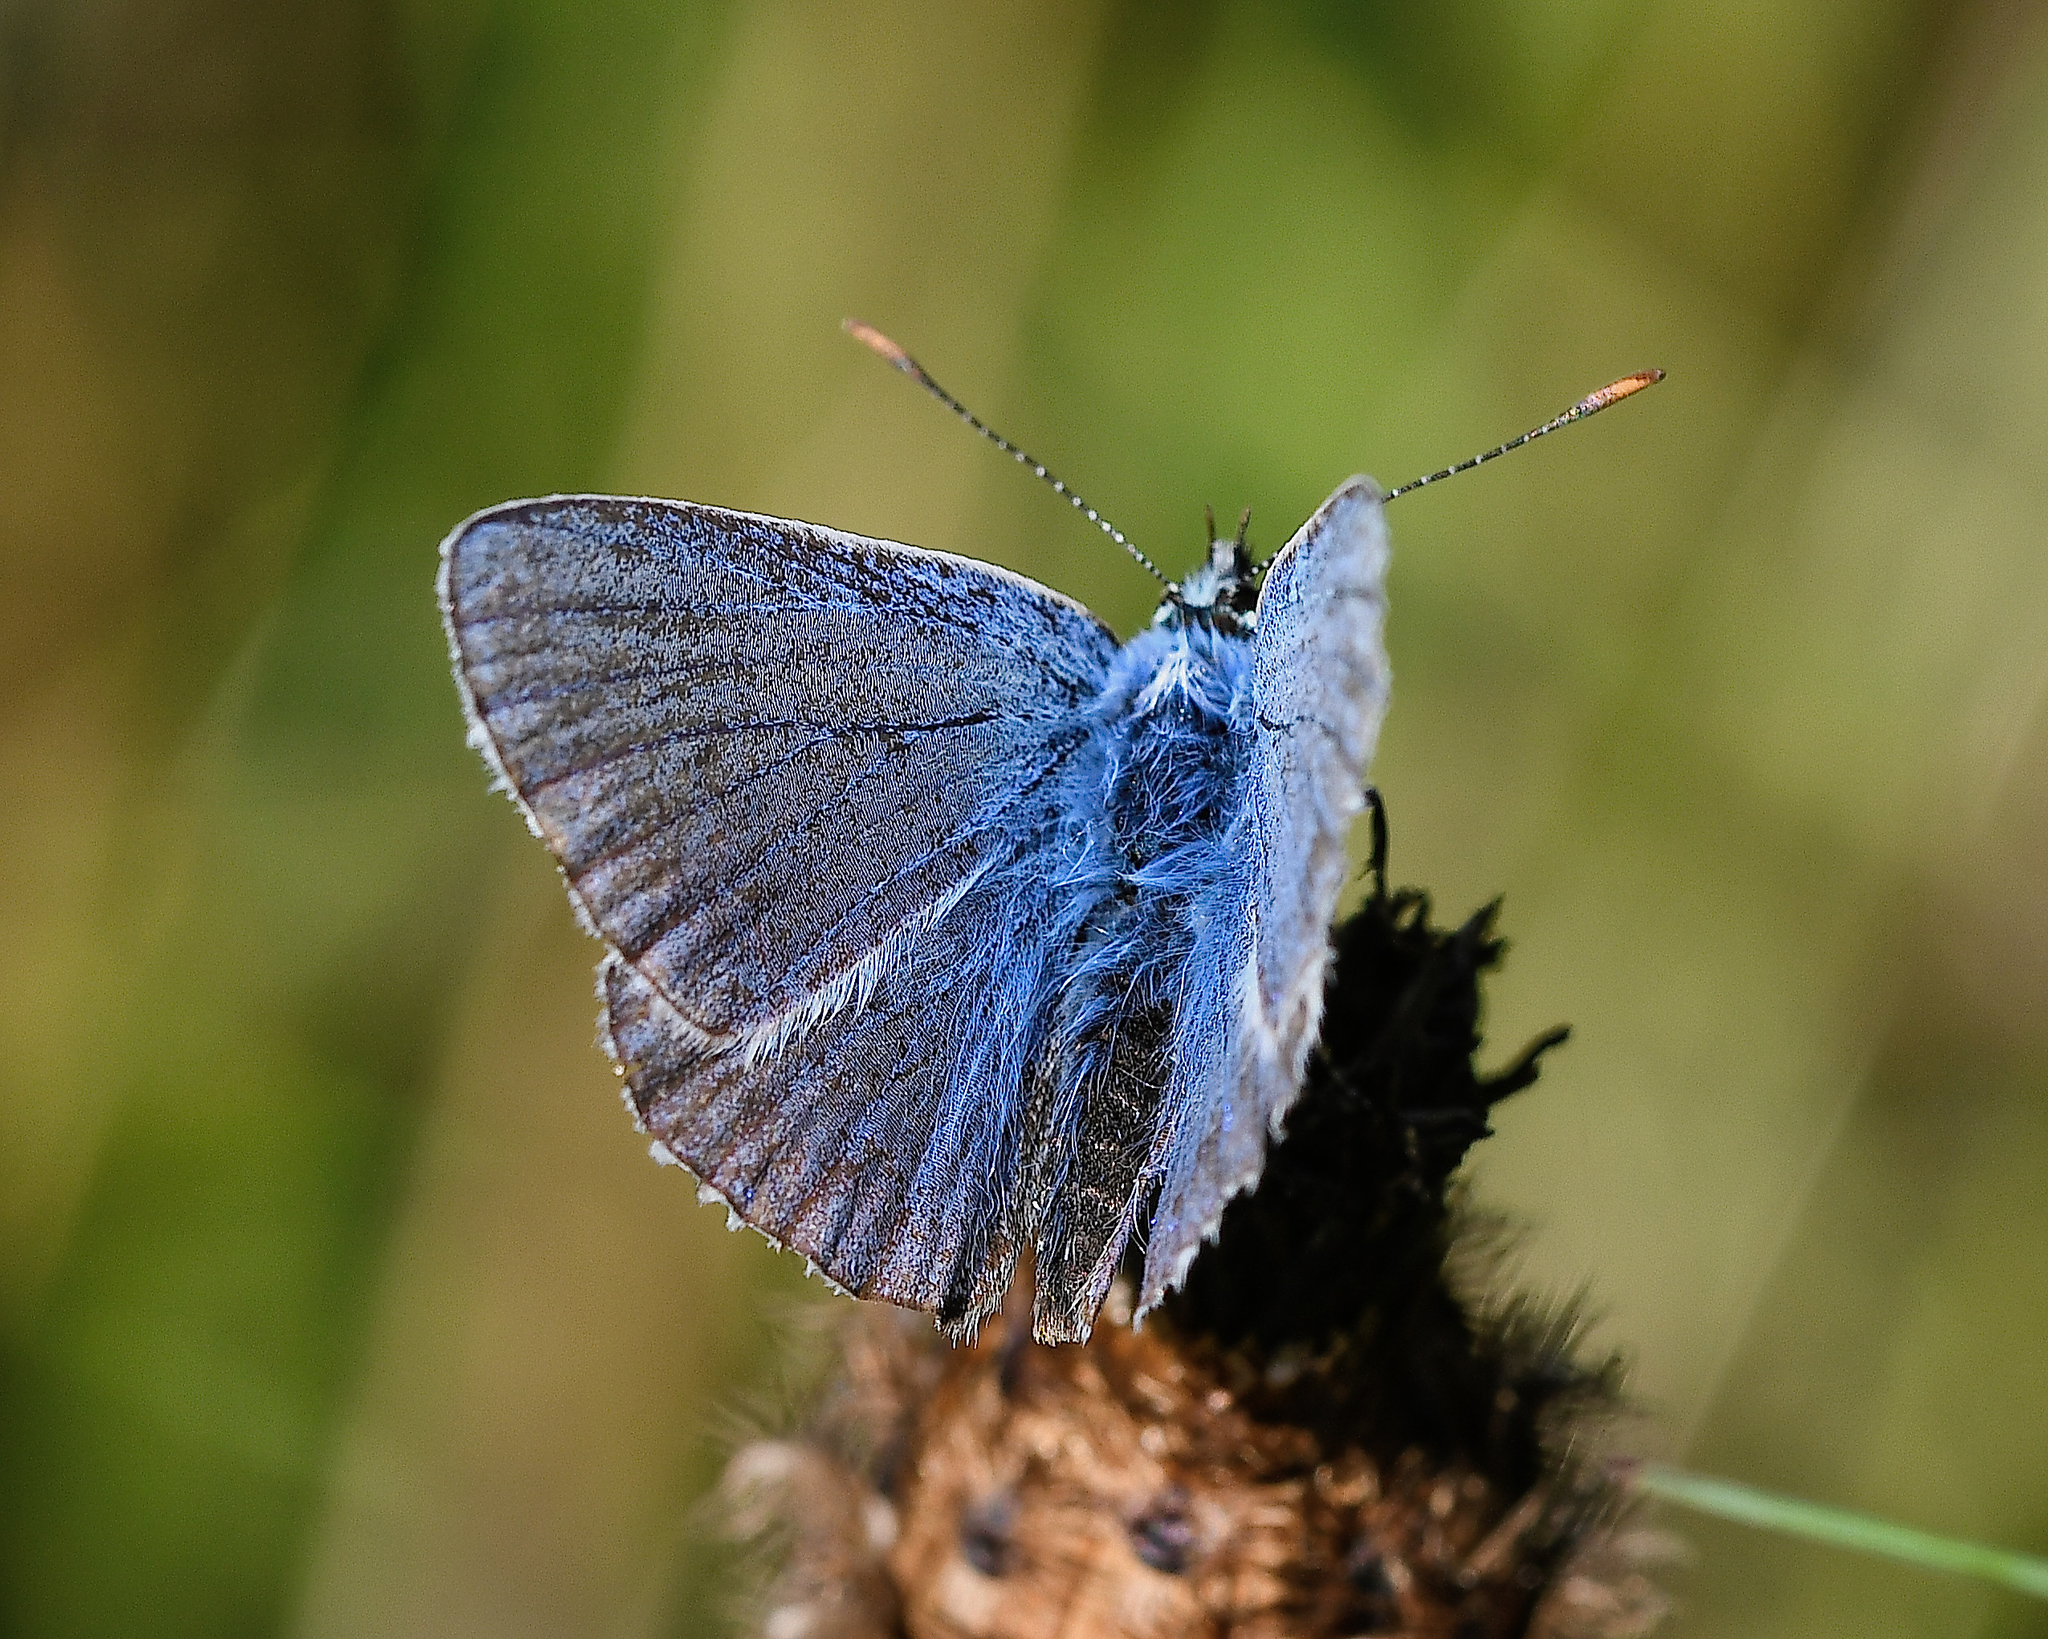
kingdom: Animalia
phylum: Arthropoda
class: Insecta
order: Lepidoptera
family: Lycaenidae
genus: Polyommatus
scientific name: Polyommatus icarus
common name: Common blue
